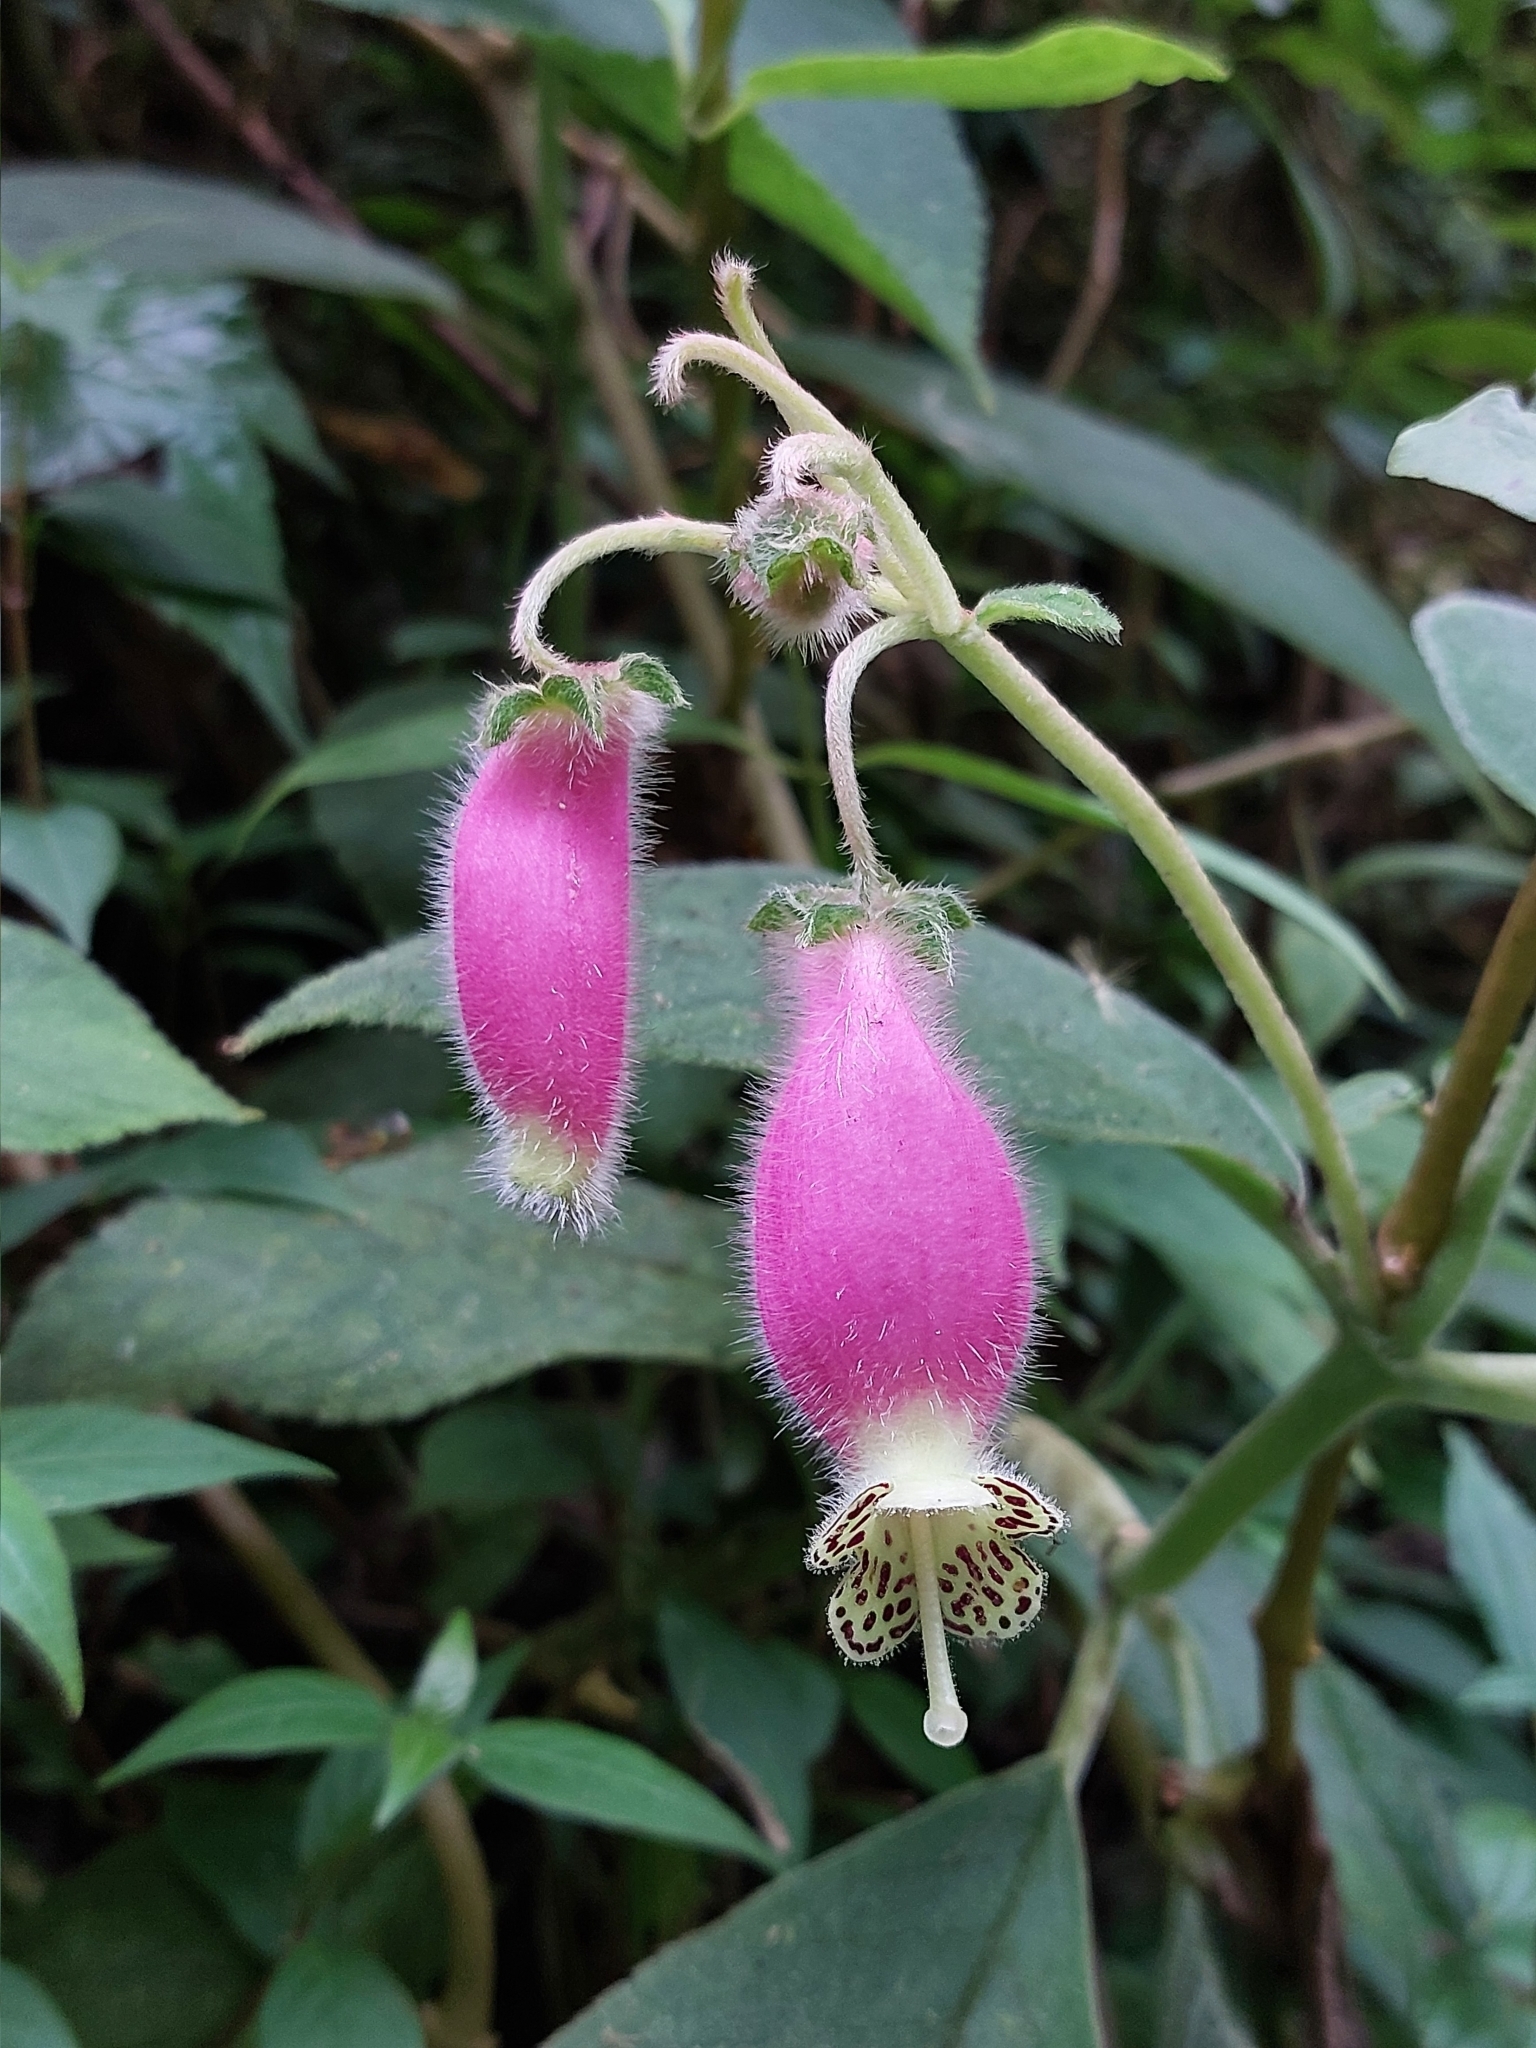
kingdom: Plantae
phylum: Tracheophyta
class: Magnoliopsida
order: Lamiales
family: Gesneriaceae
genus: Kohleria
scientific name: Kohleria affinis
